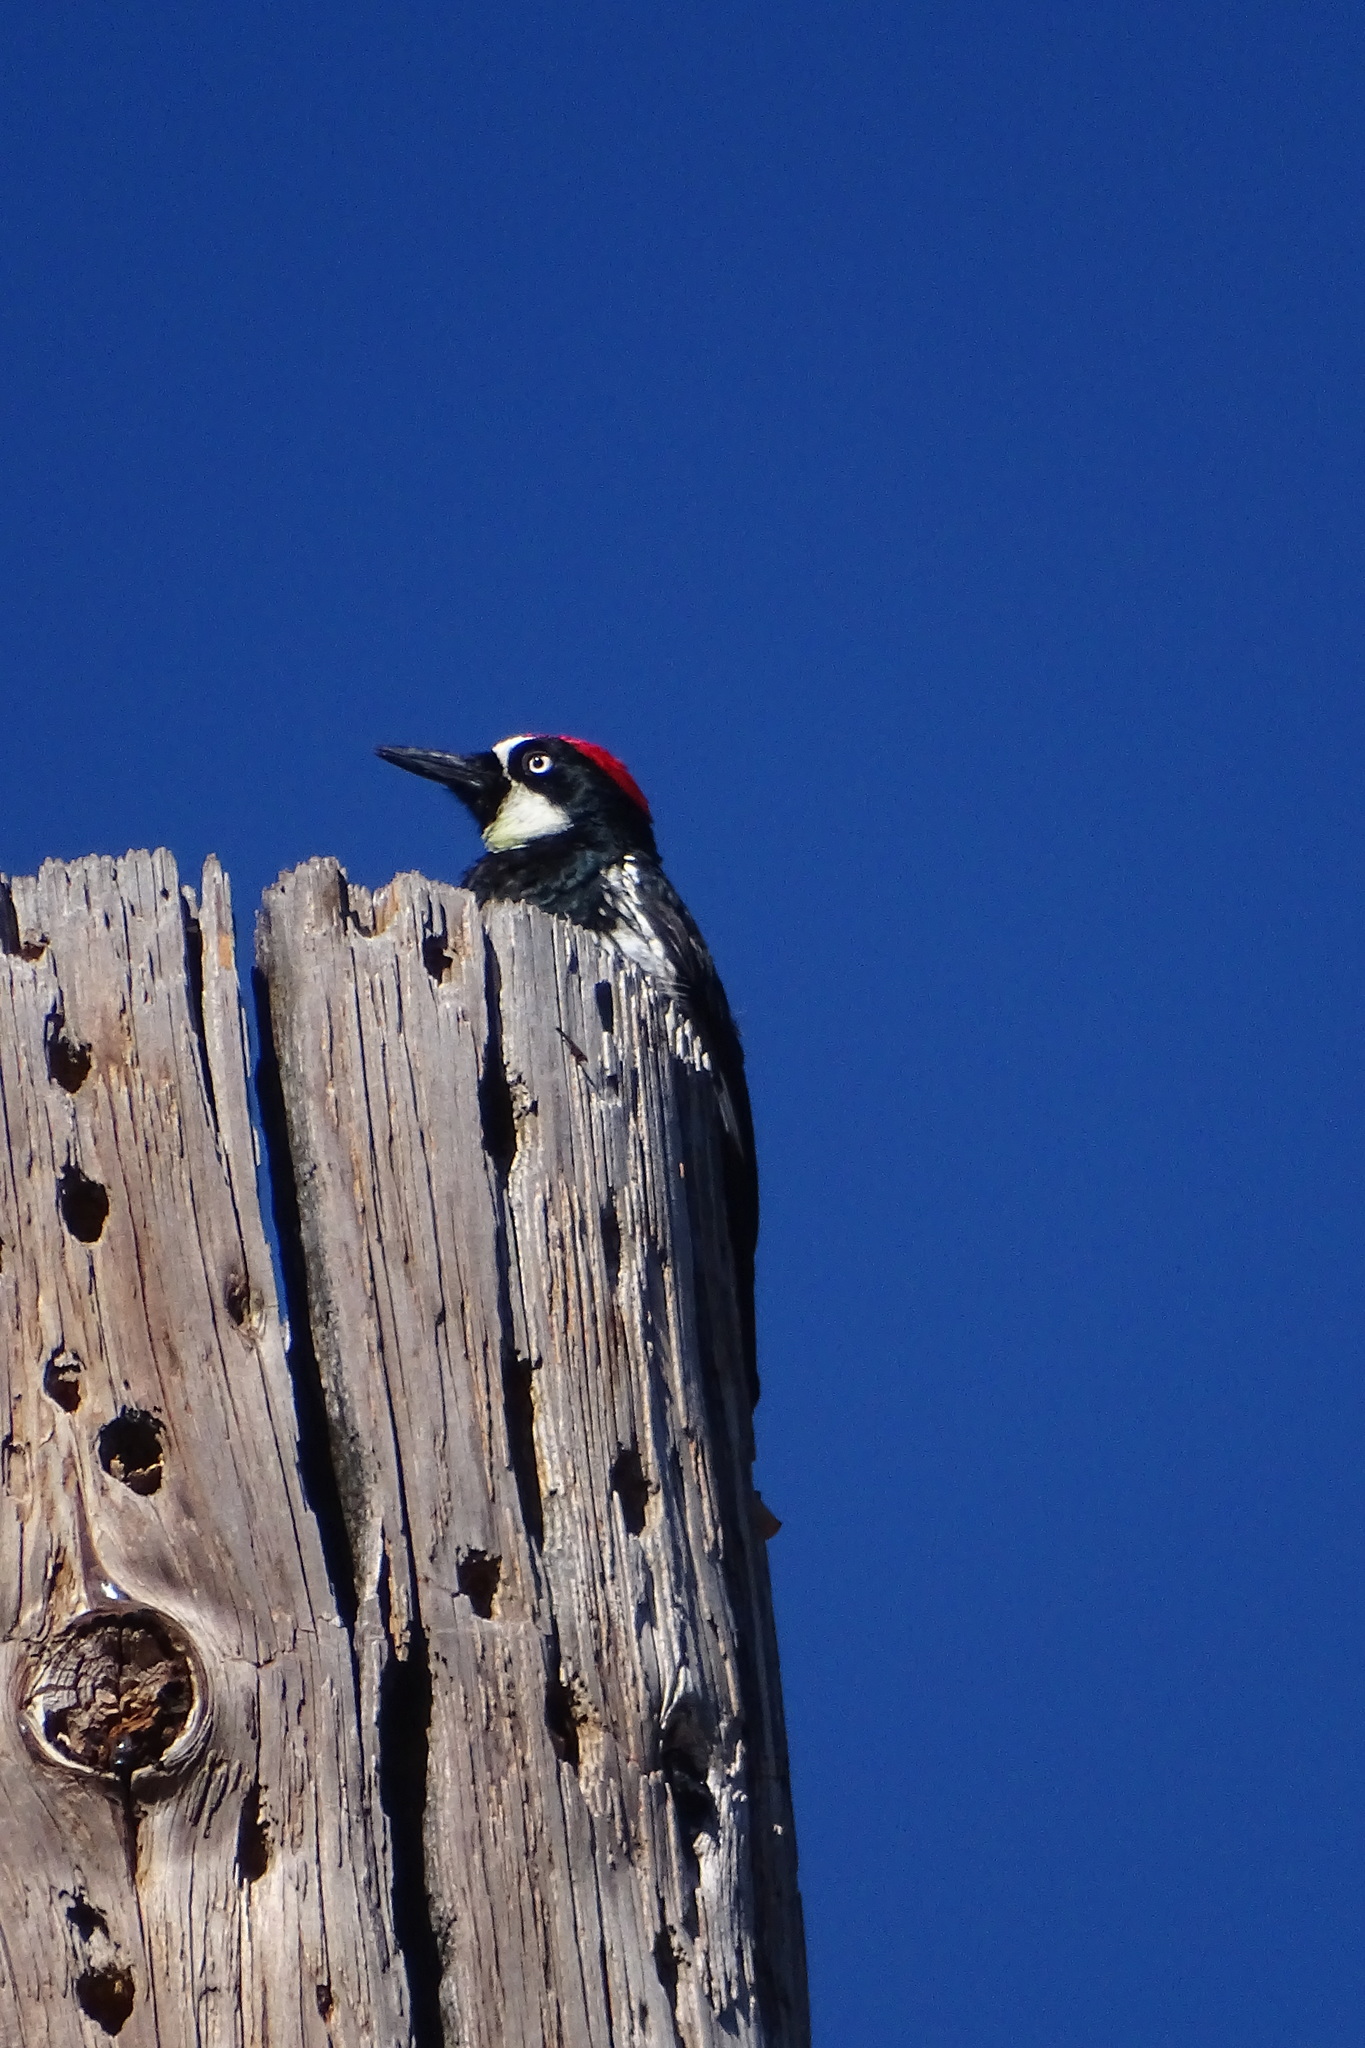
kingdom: Animalia
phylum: Chordata
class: Aves
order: Piciformes
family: Picidae
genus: Melanerpes
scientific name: Melanerpes formicivorus
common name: Acorn woodpecker
